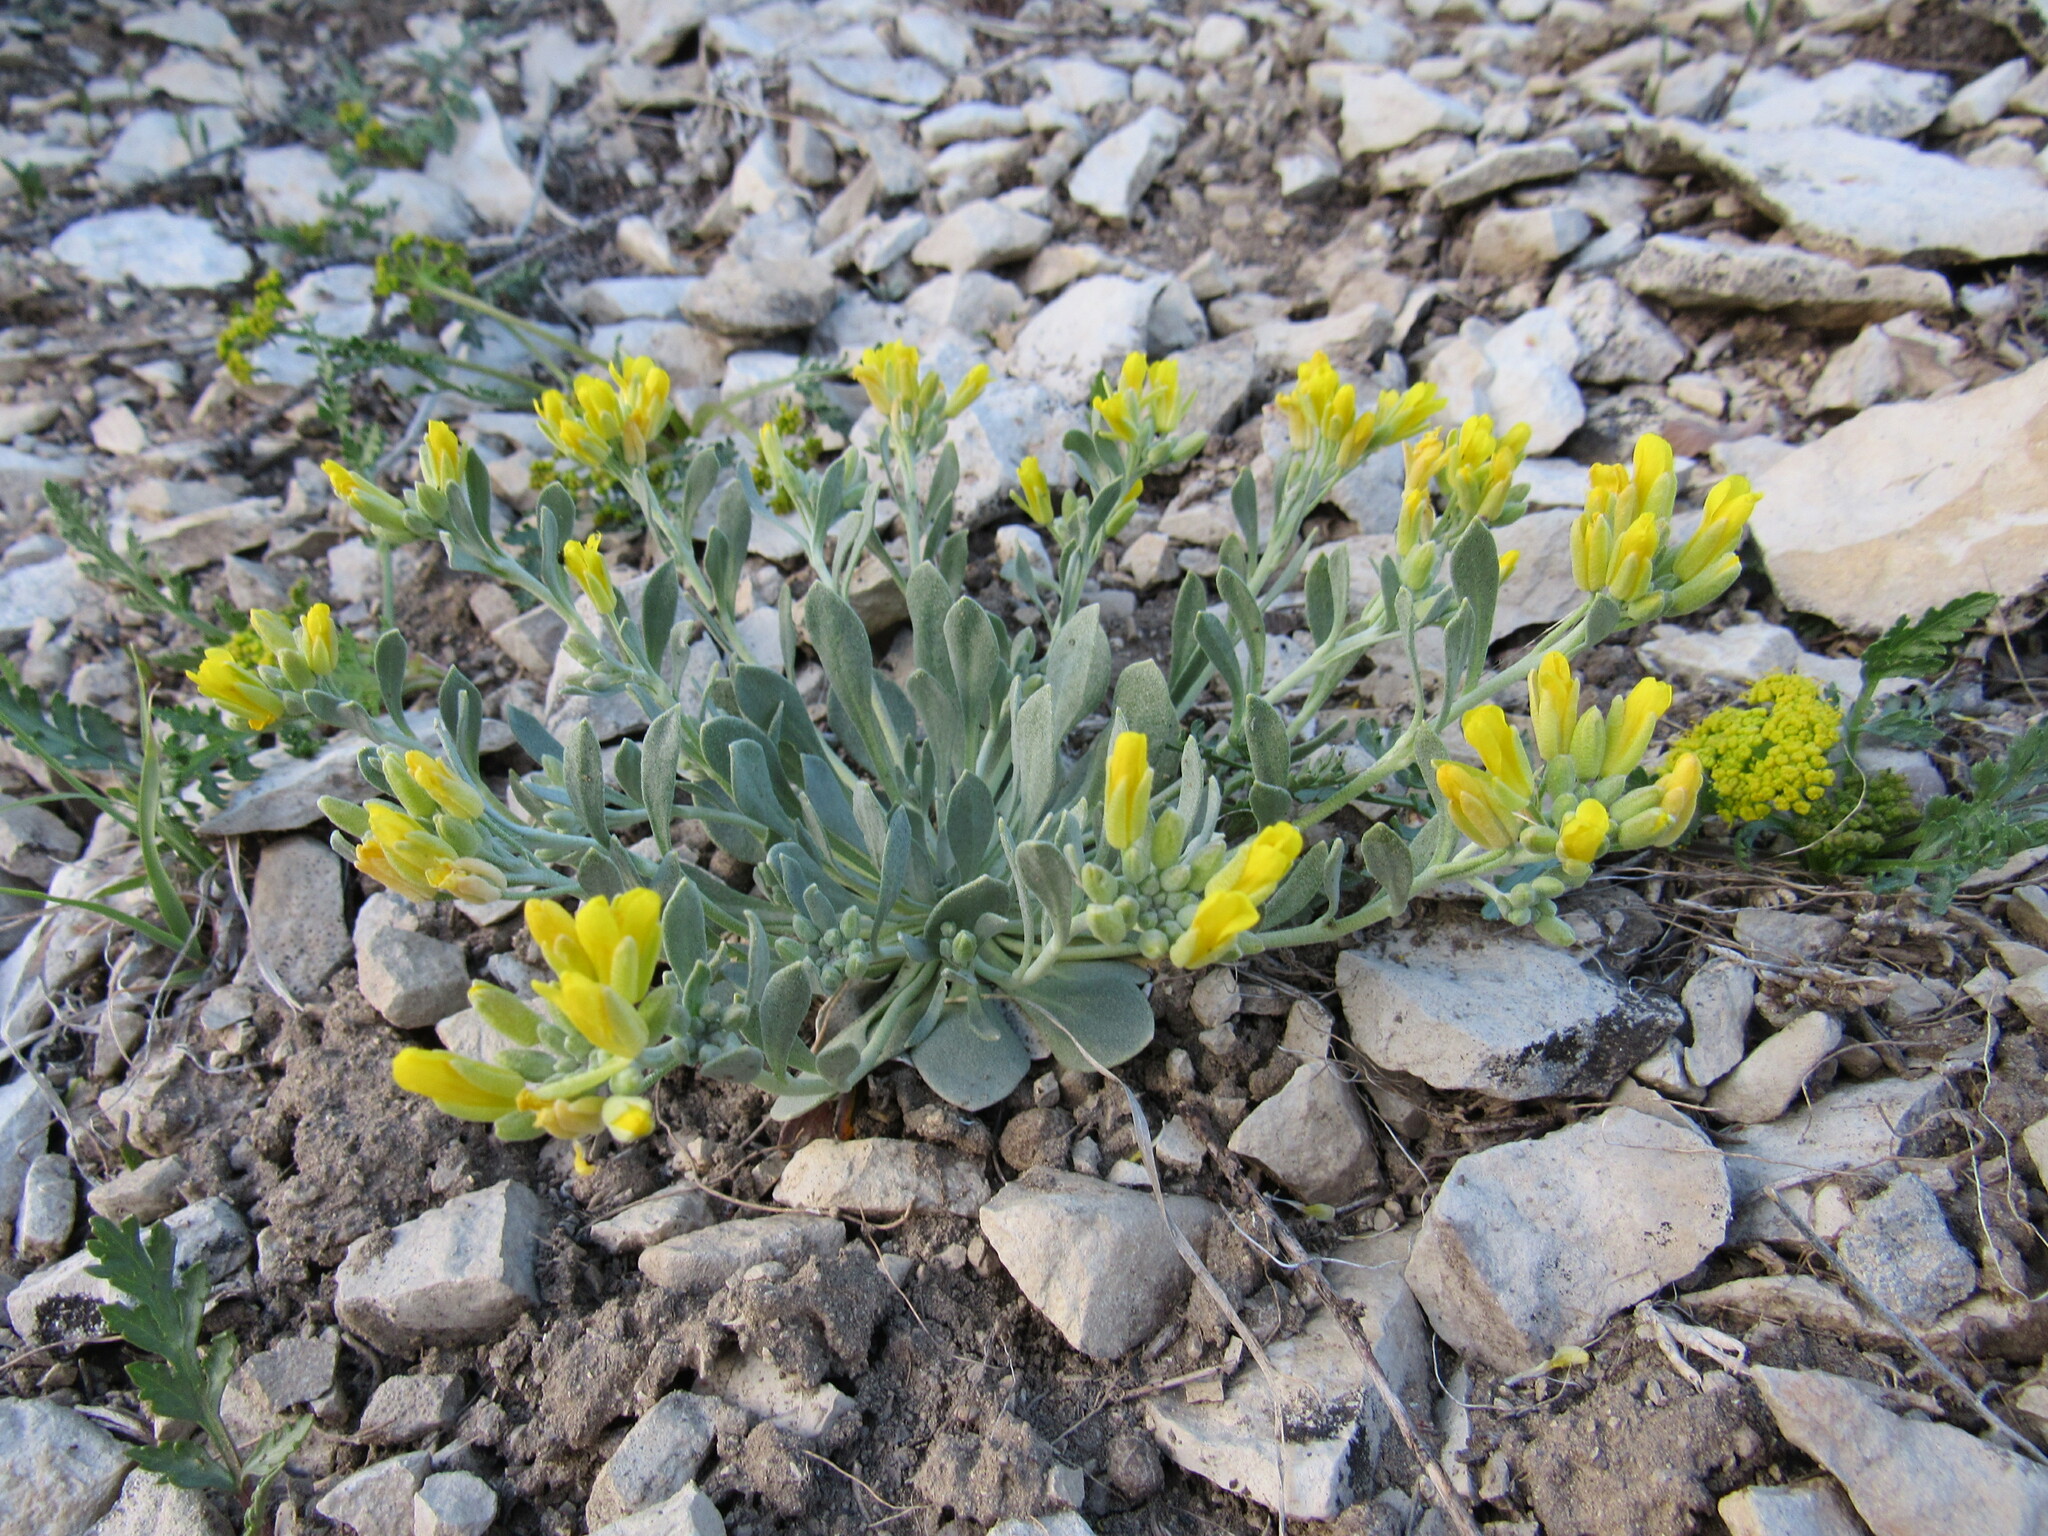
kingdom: Plantae
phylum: Tracheophyta
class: Magnoliopsida
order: Brassicales
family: Brassicaceae
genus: Physaria
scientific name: Physaria bellii
